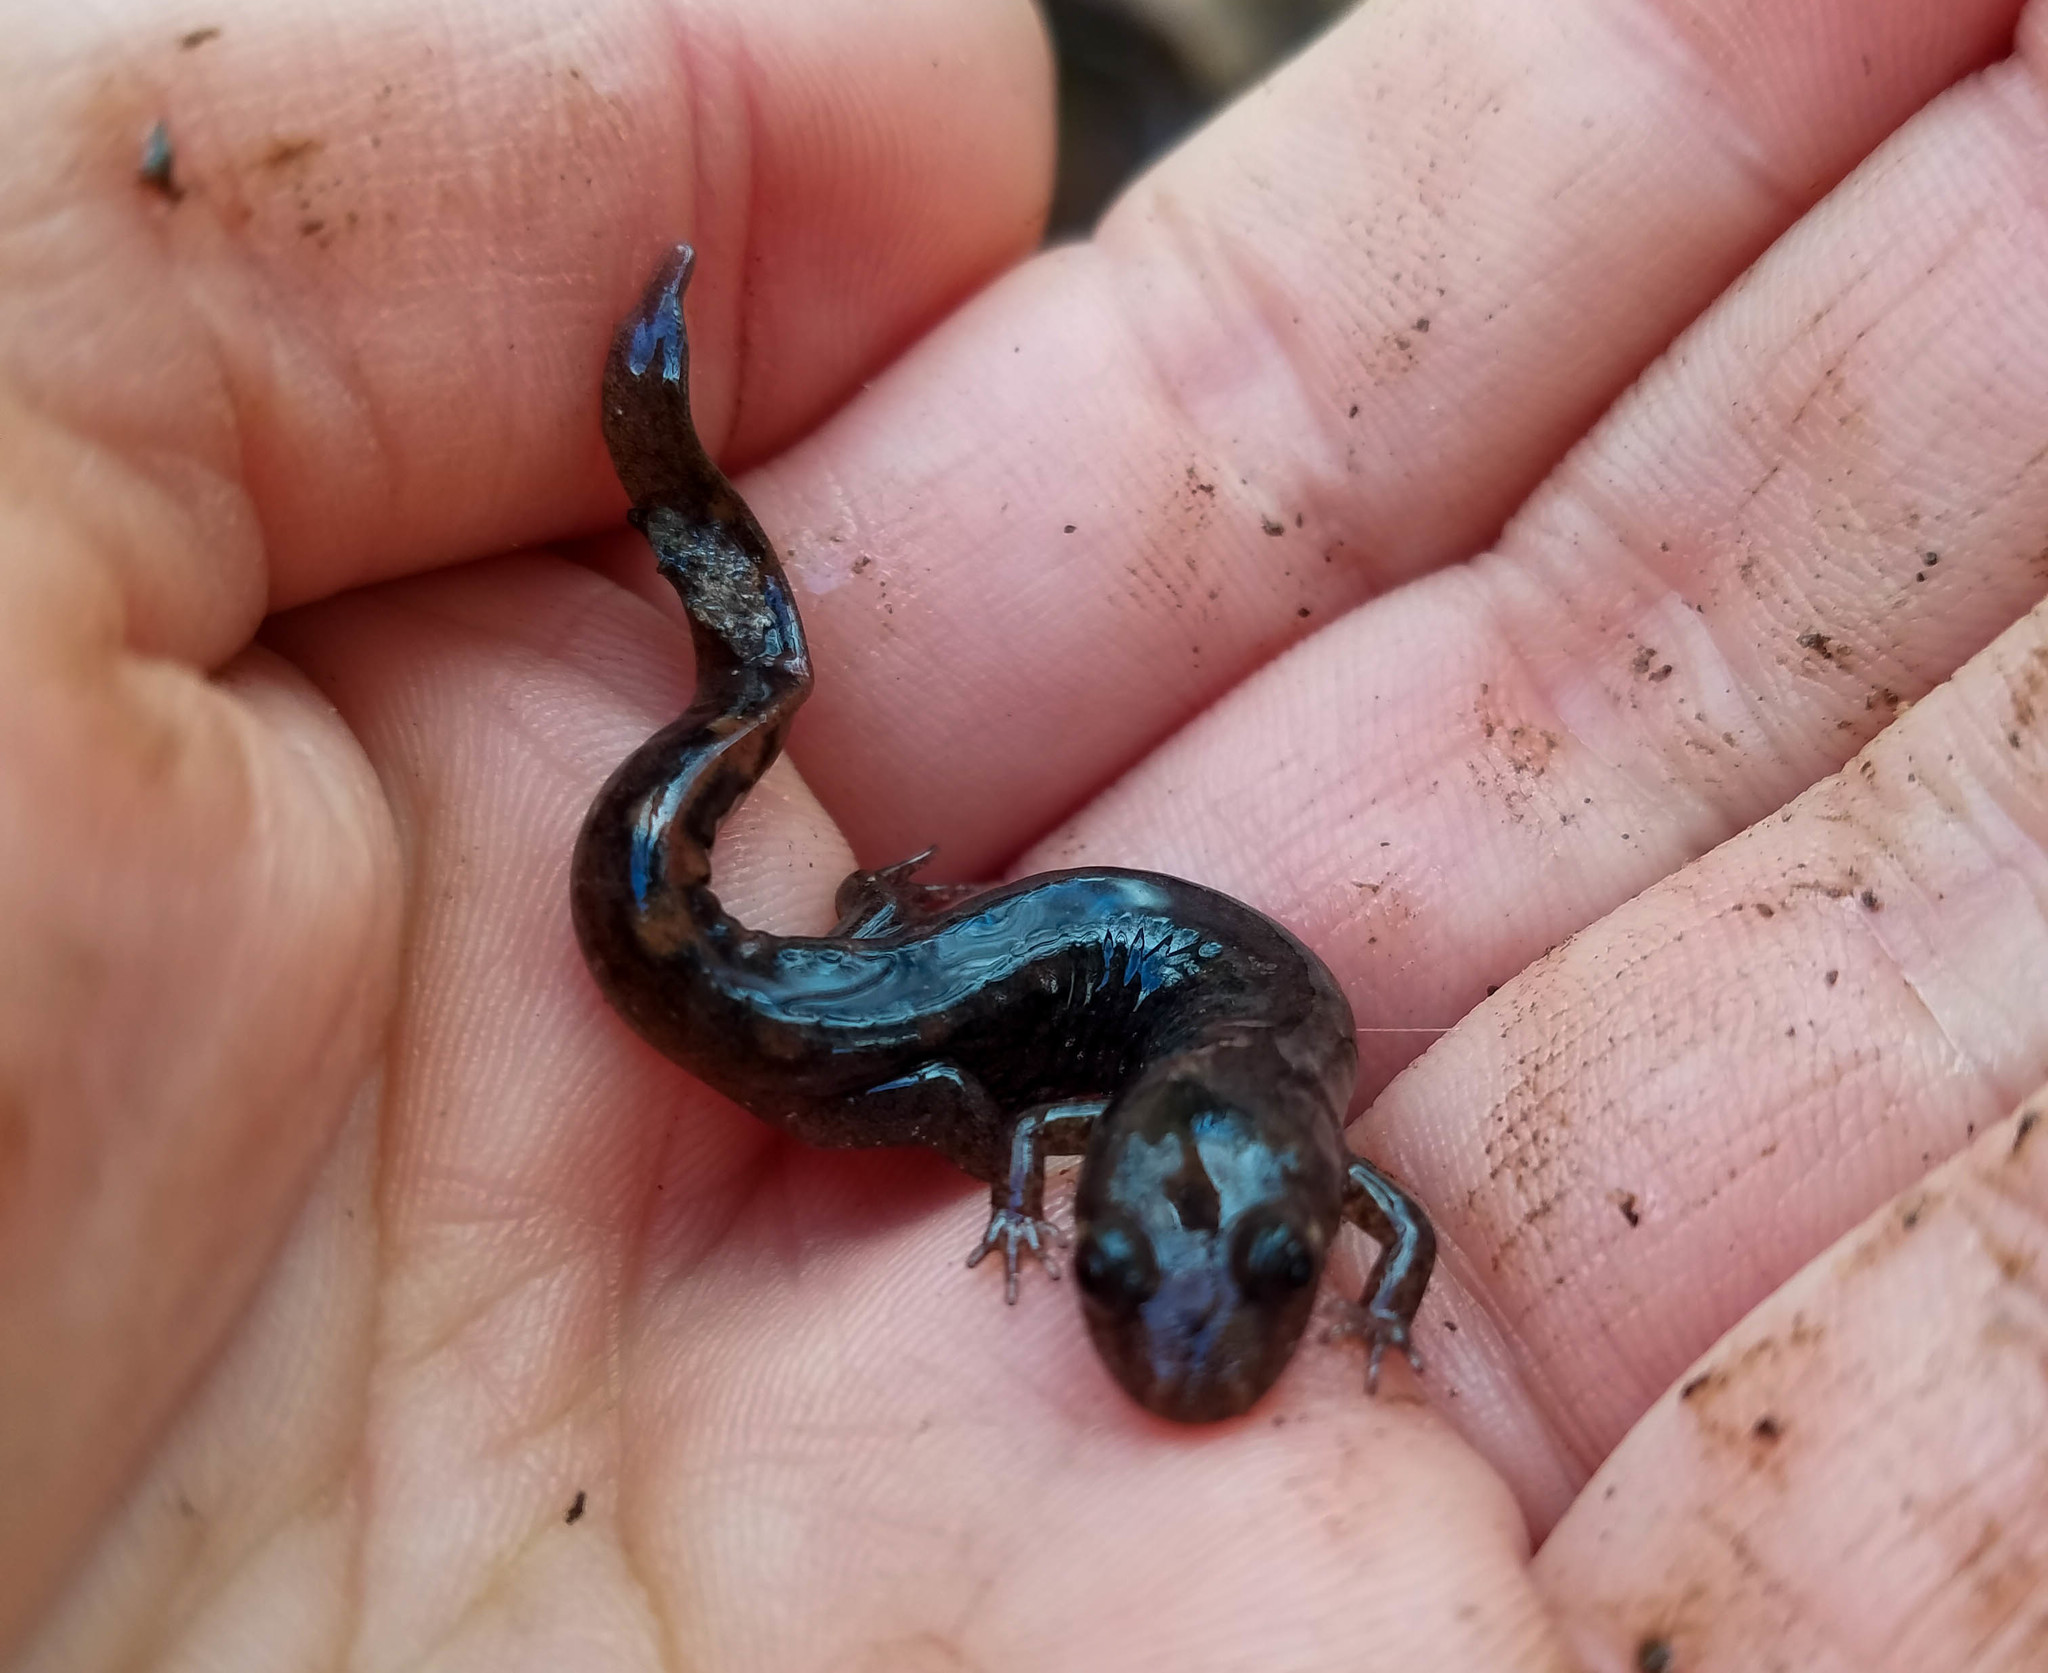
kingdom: Animalia
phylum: Chordata
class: Amphibia
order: Caudata
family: Plethodontidae
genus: Desmognathus
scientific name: Desmognathus monticola
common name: Seal salamander
